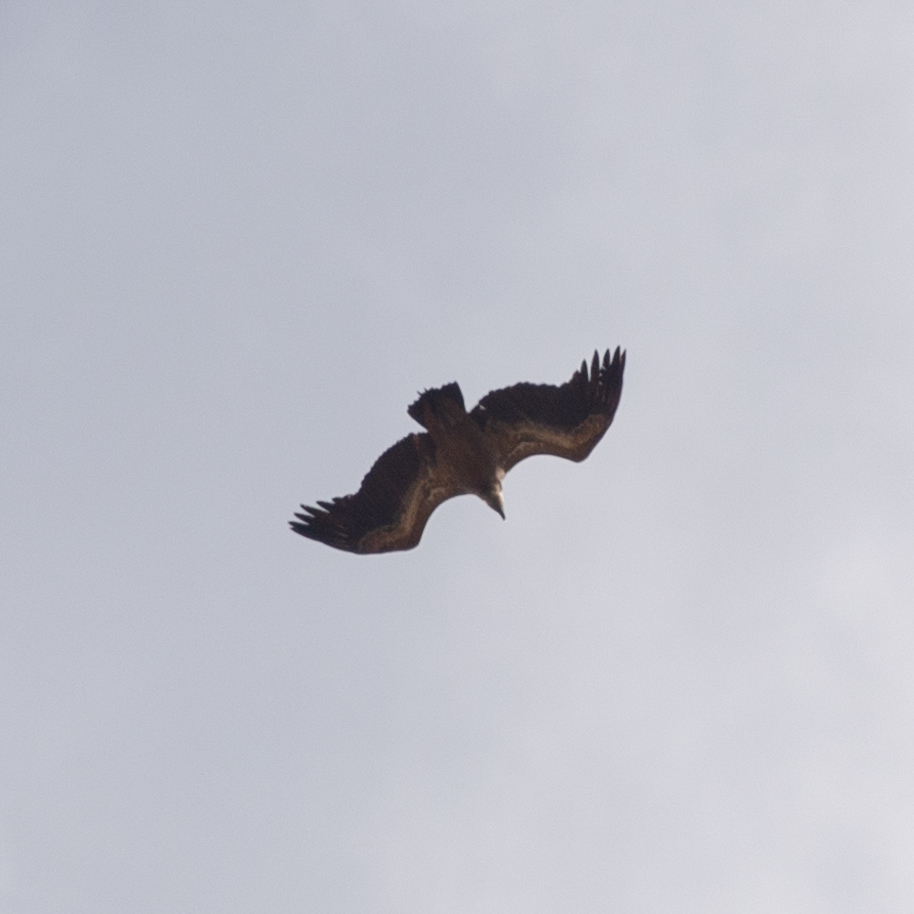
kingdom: Animalia
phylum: Chordata
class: Aves
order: Accipitriformes
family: Accipitridae
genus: Gyps
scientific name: Gyps fulvus
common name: Griffon vulture
